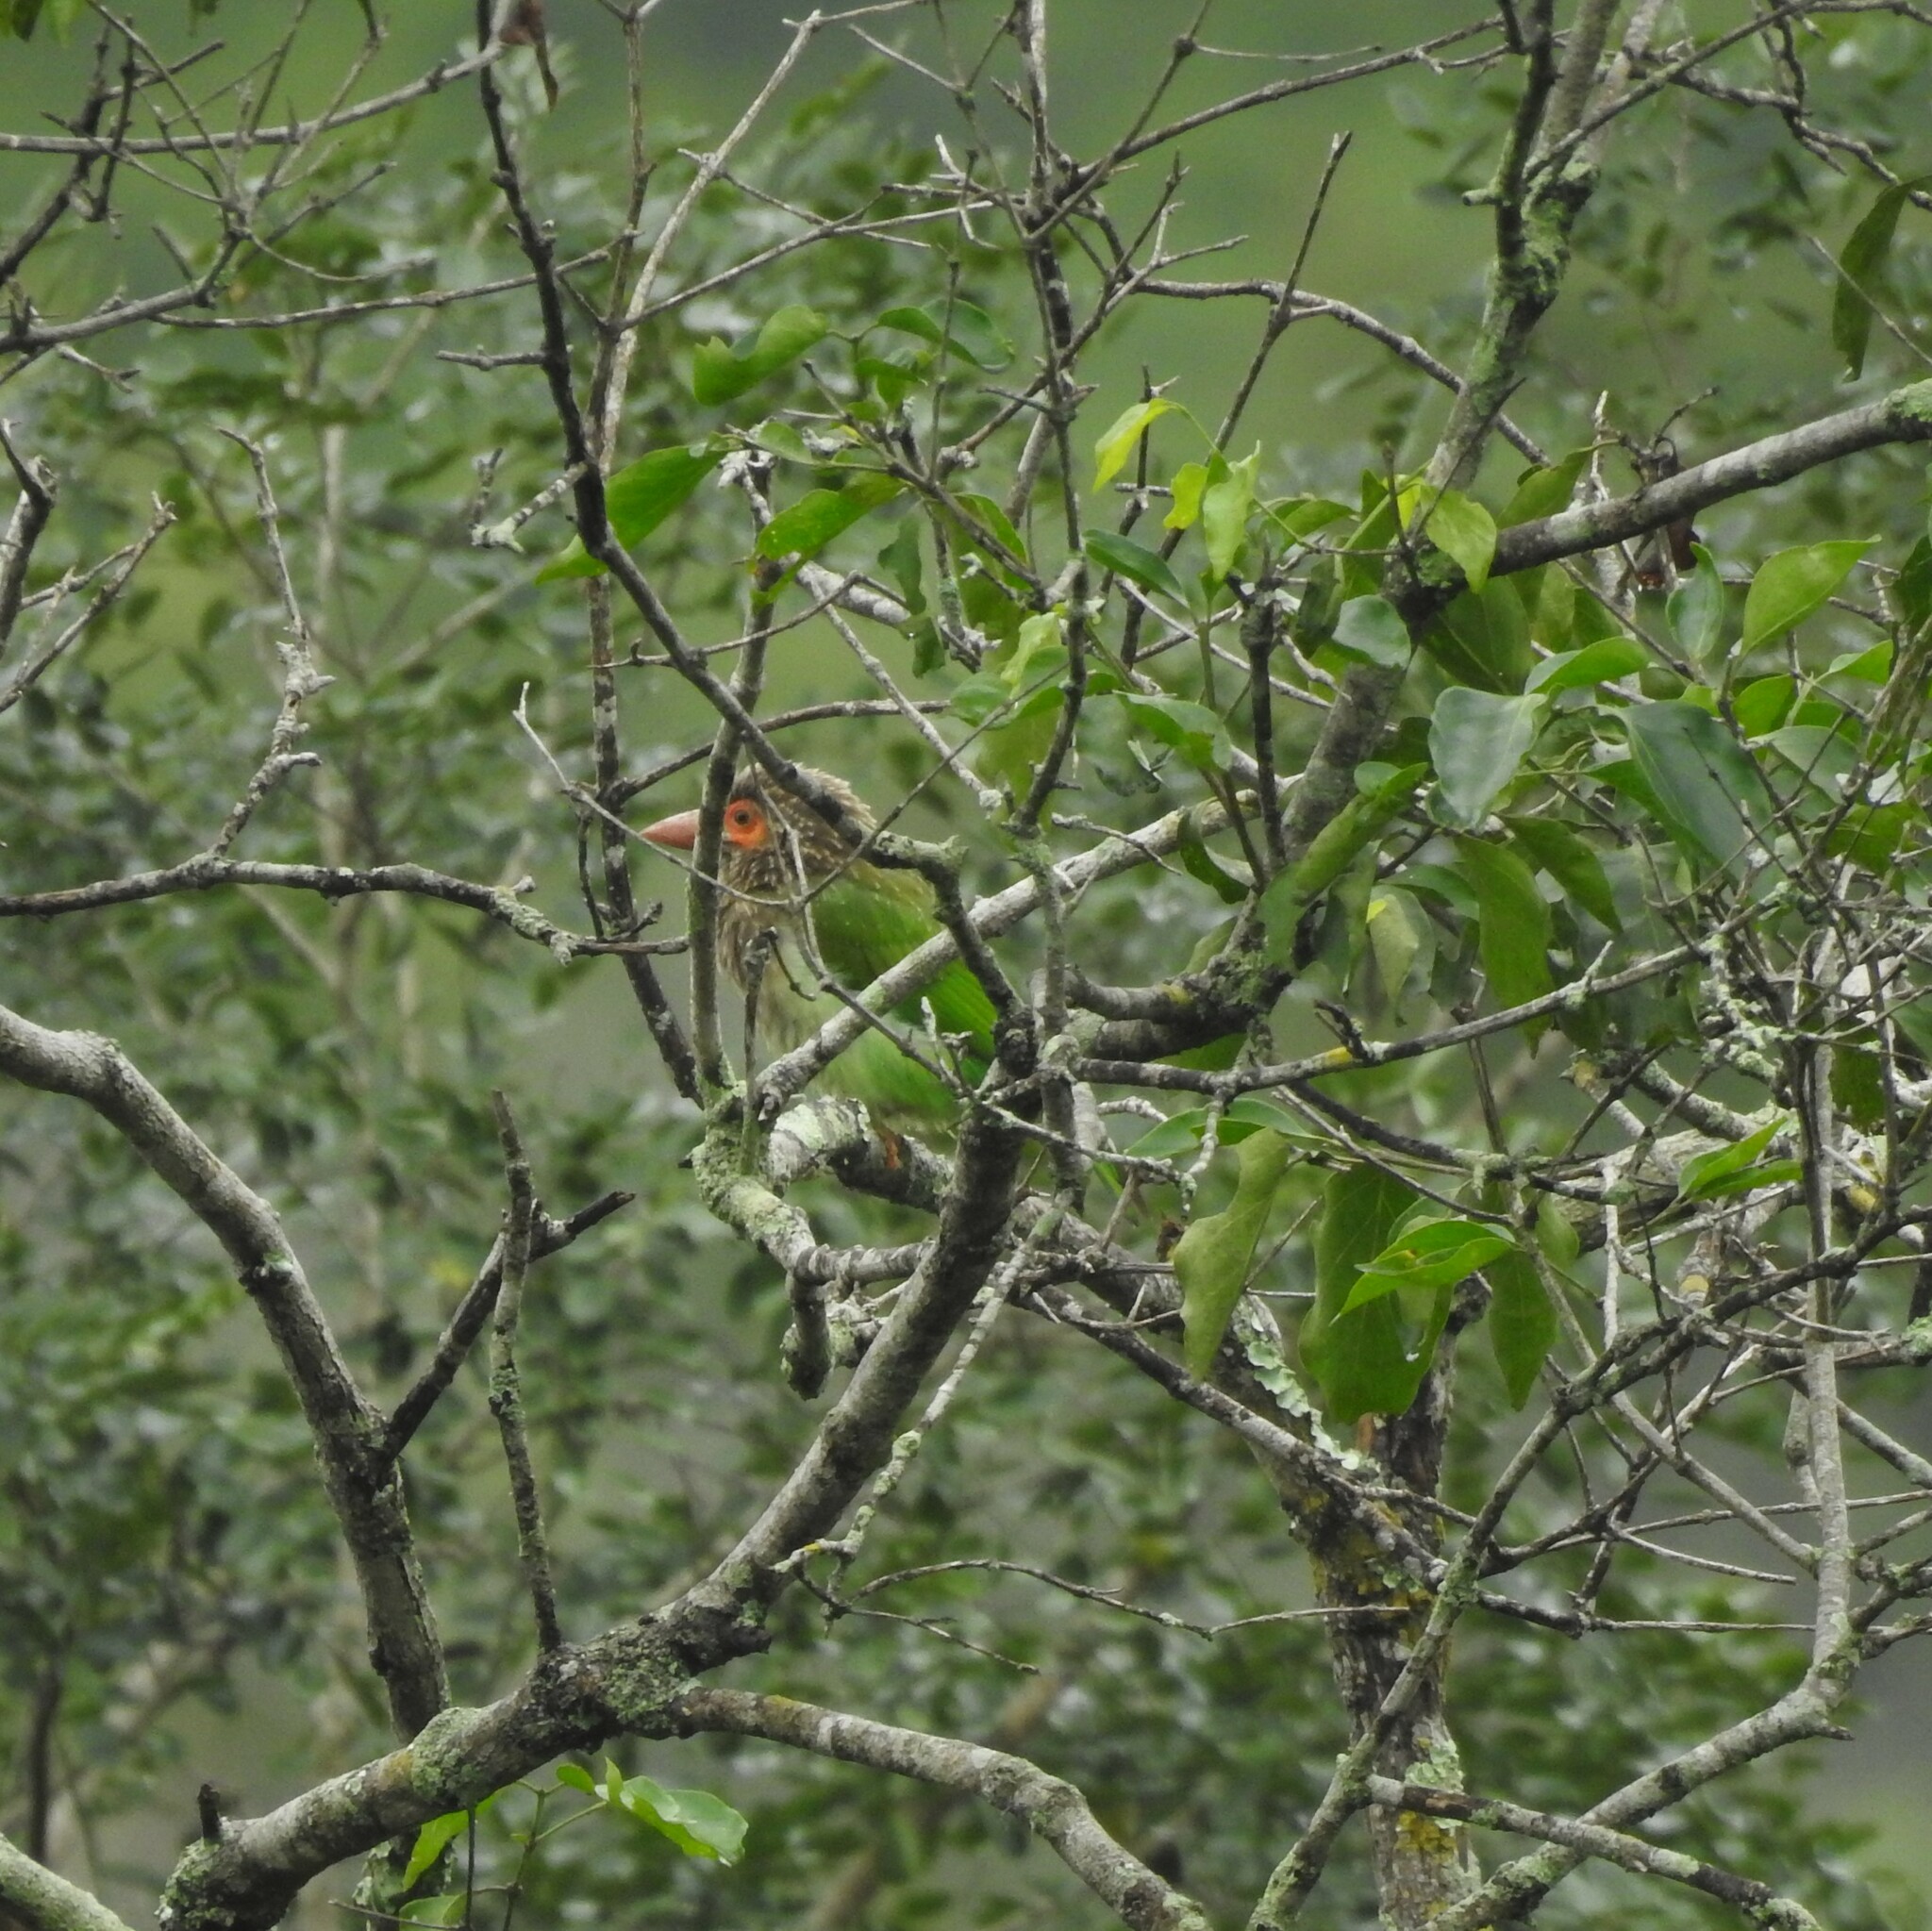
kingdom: Animalia
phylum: Chordata
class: Aves
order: Piciformes
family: Megalaimidae
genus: Psilopogon
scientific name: Psilopogon zeylanicus
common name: Brown-headed barbet
